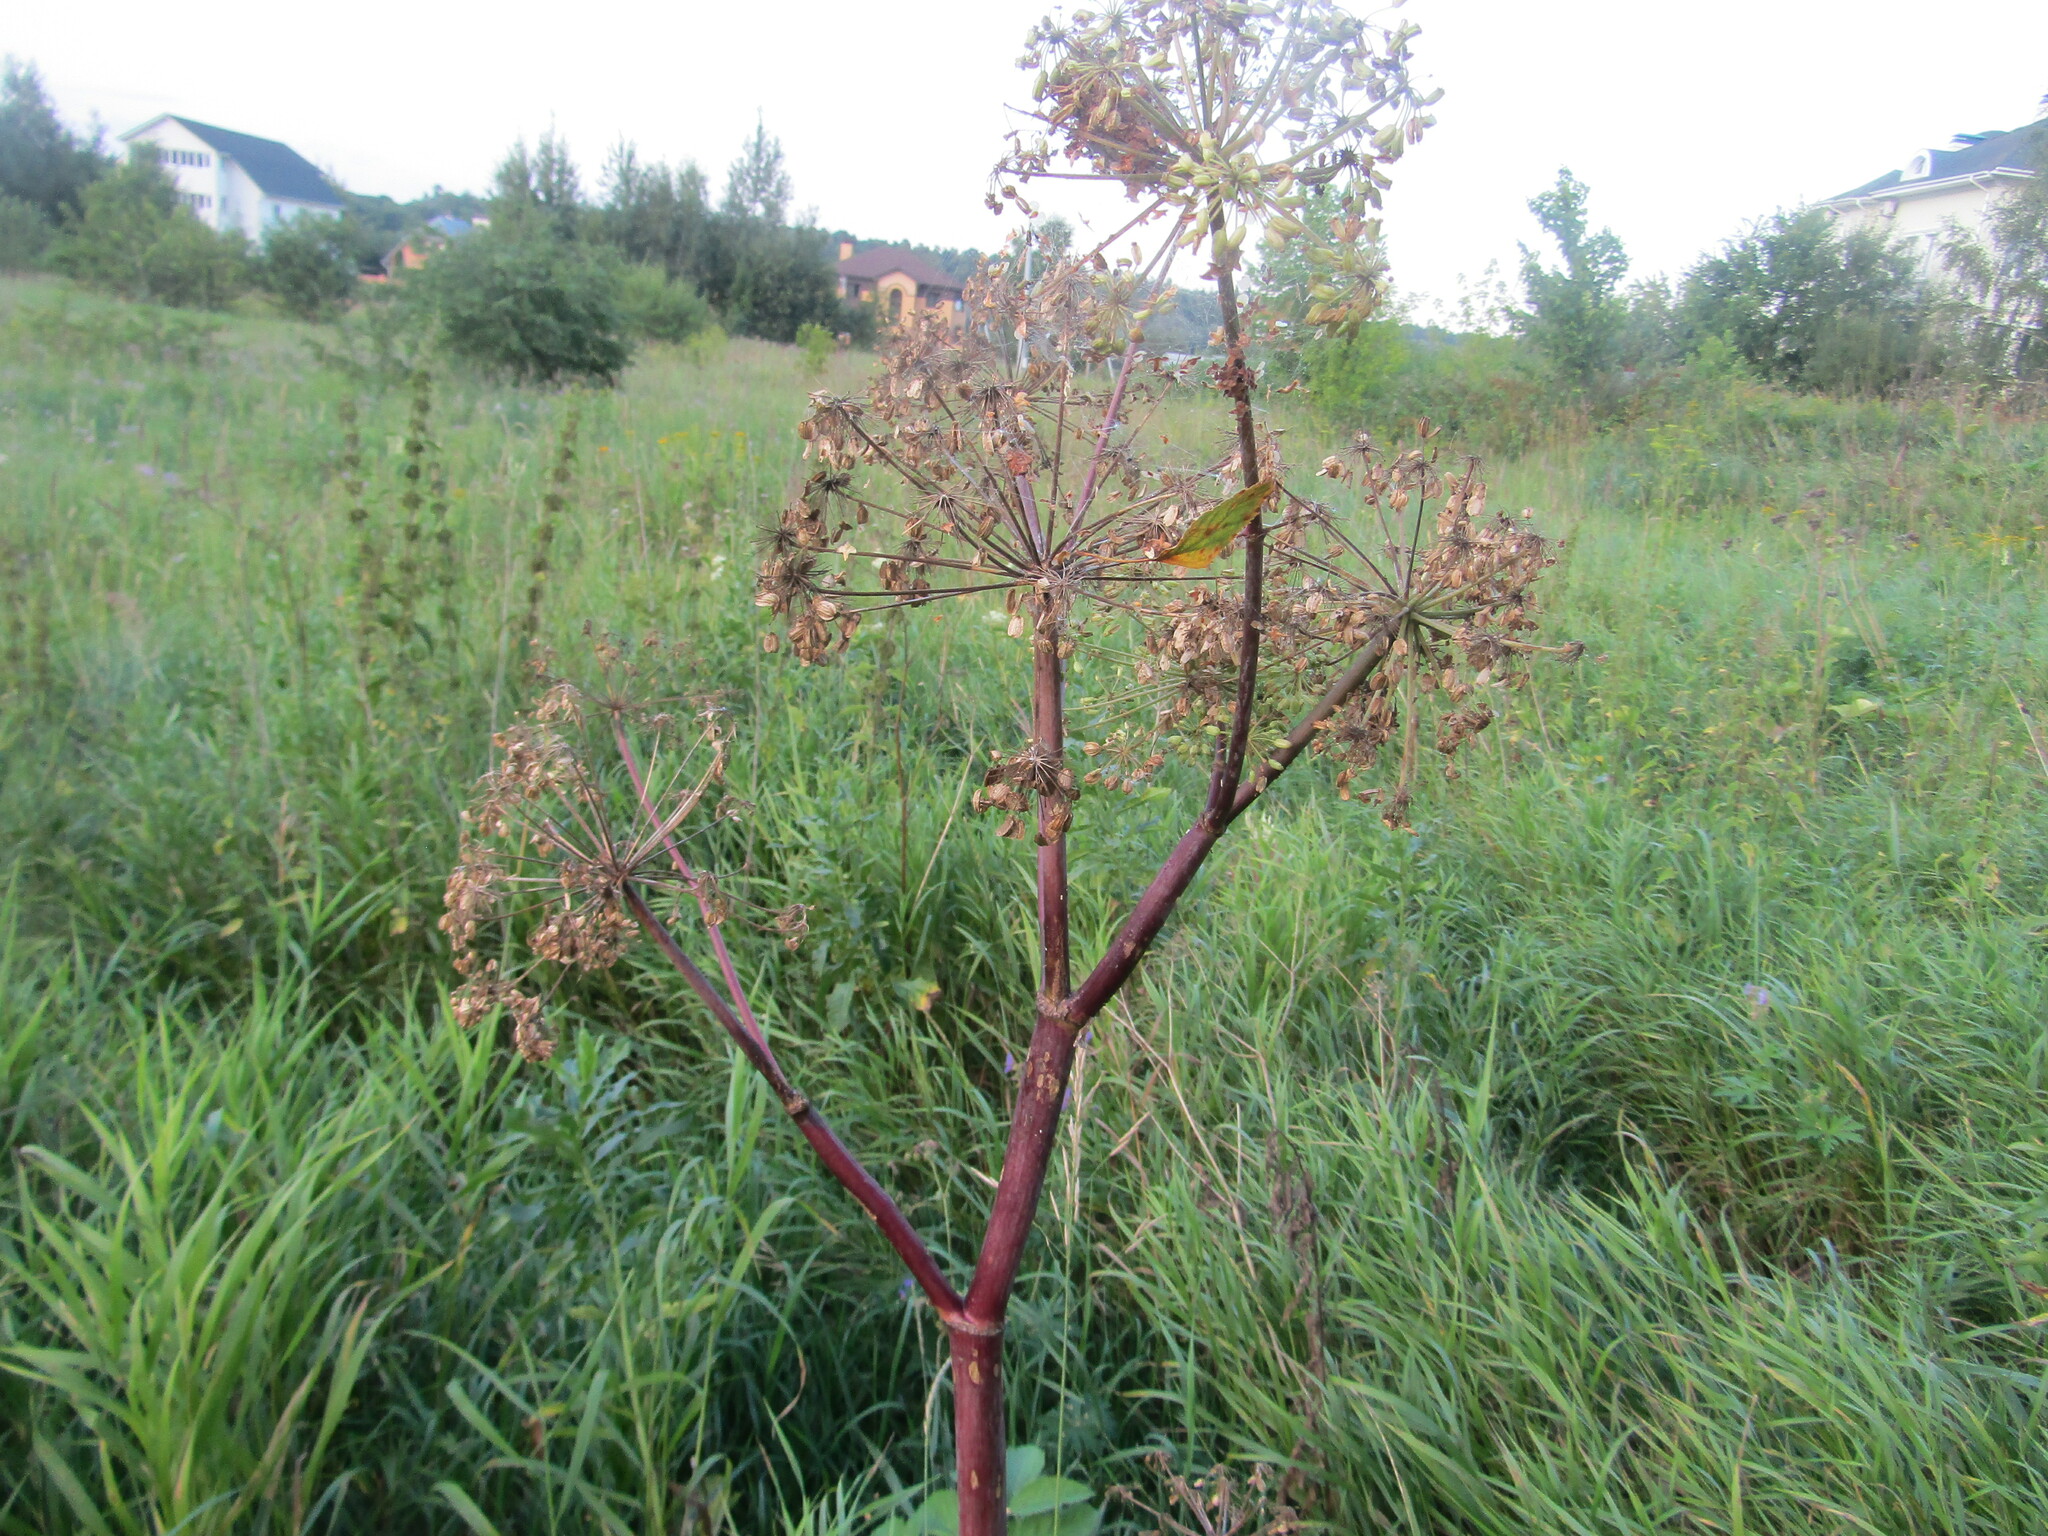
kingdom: Plantae
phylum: Tracheophyta
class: Magnoliopsida
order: Apiales
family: Apiaceae
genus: Angelica
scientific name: Angelica archangelica
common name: Garden angelica
